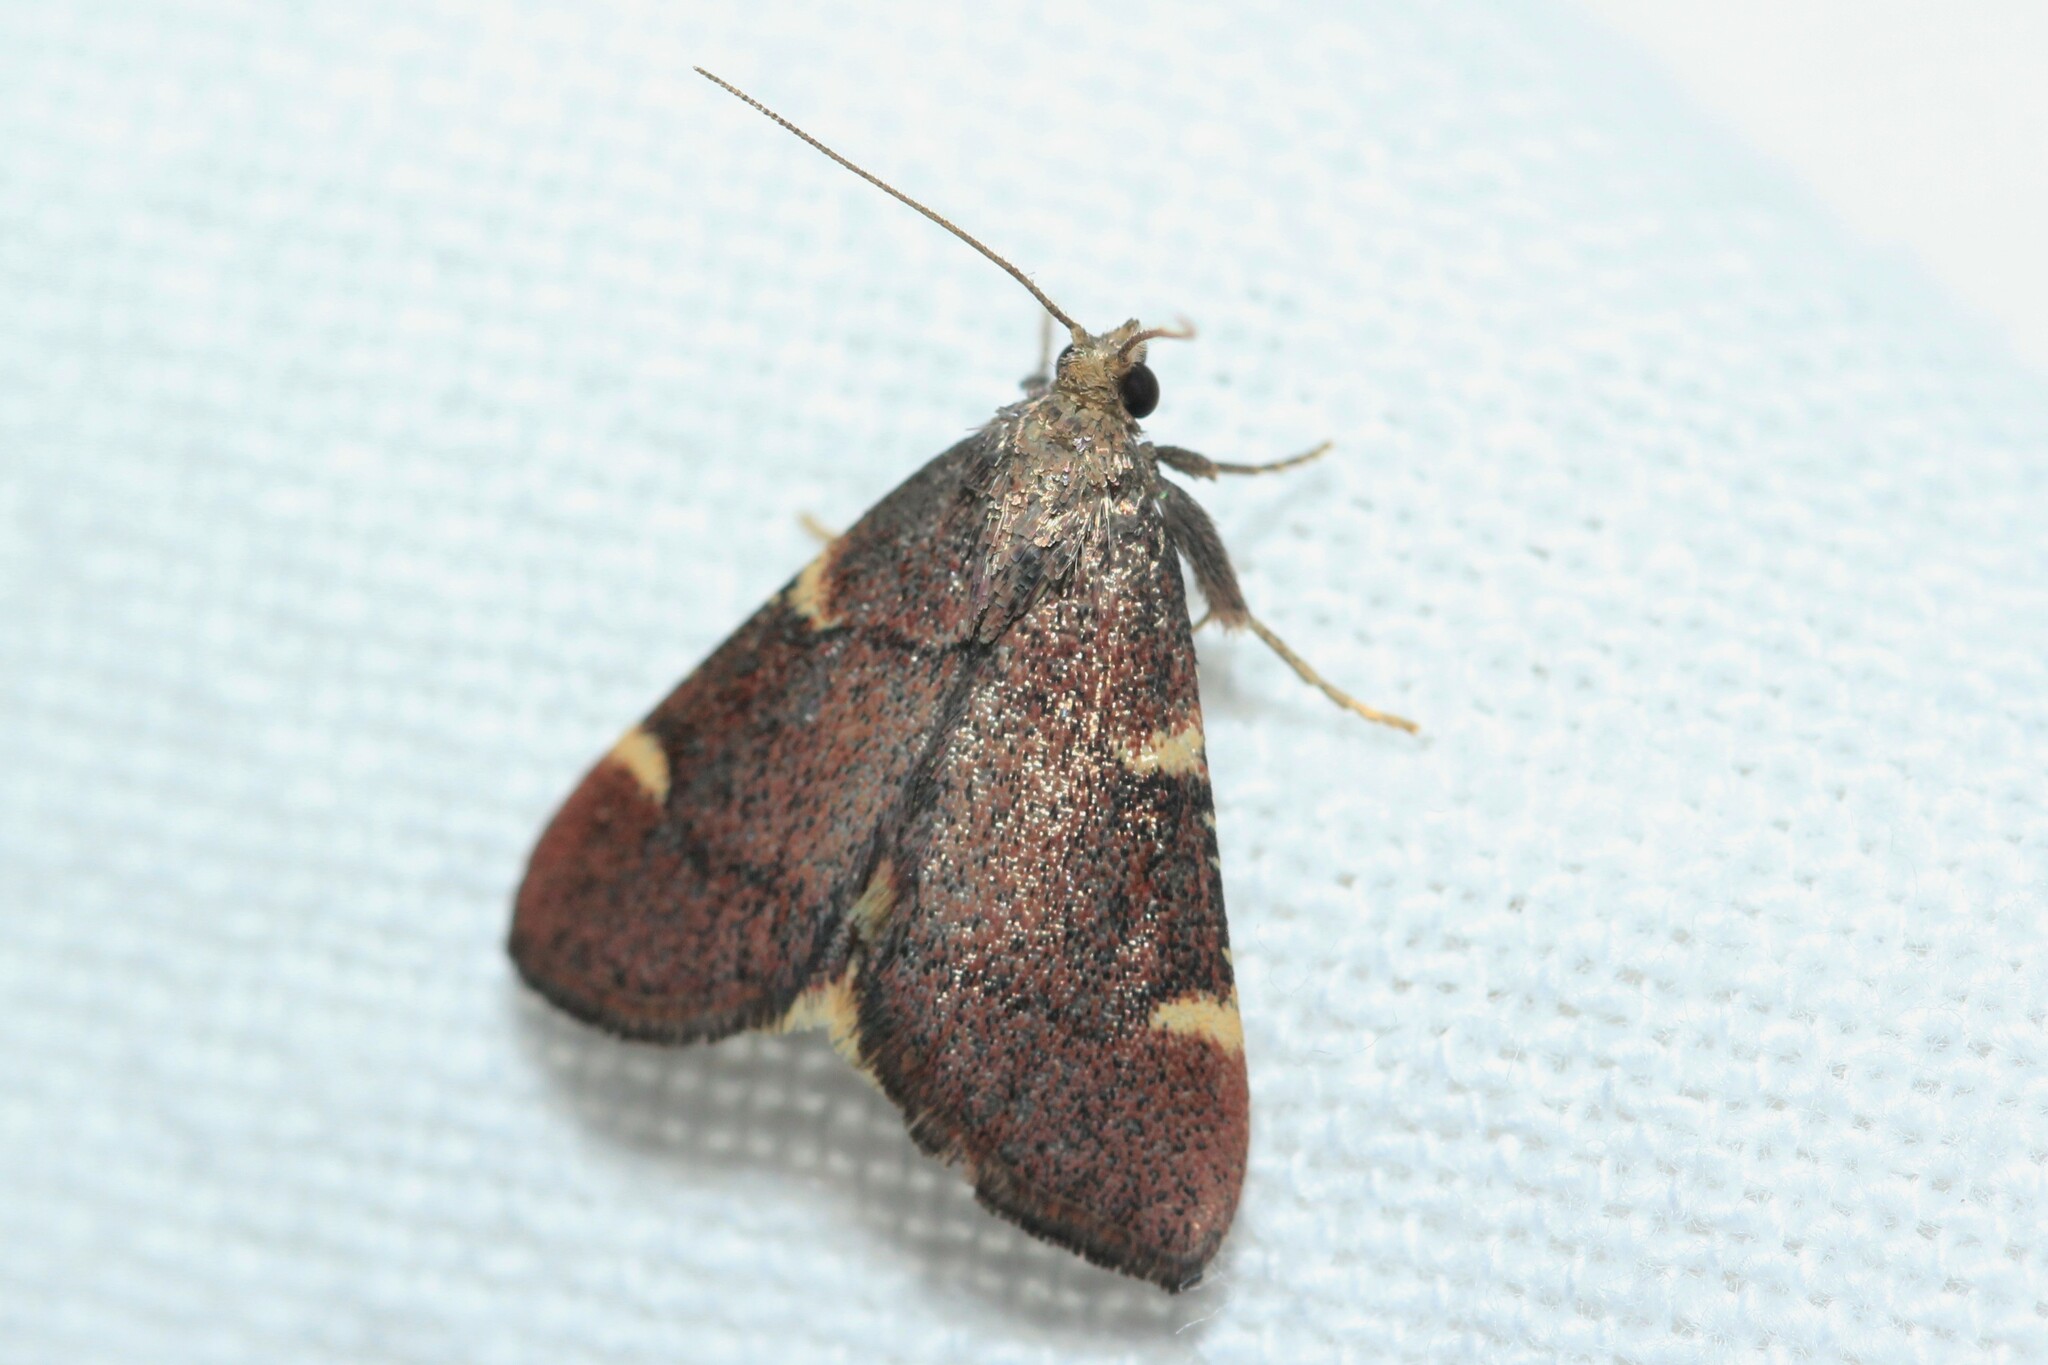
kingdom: Animalia
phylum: Arthropoda
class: Insecta
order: Lepidoptera
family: Pyralidae
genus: Hypsopygia
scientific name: Hypsopygia thymetusalis
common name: Spruce needleworm moth
